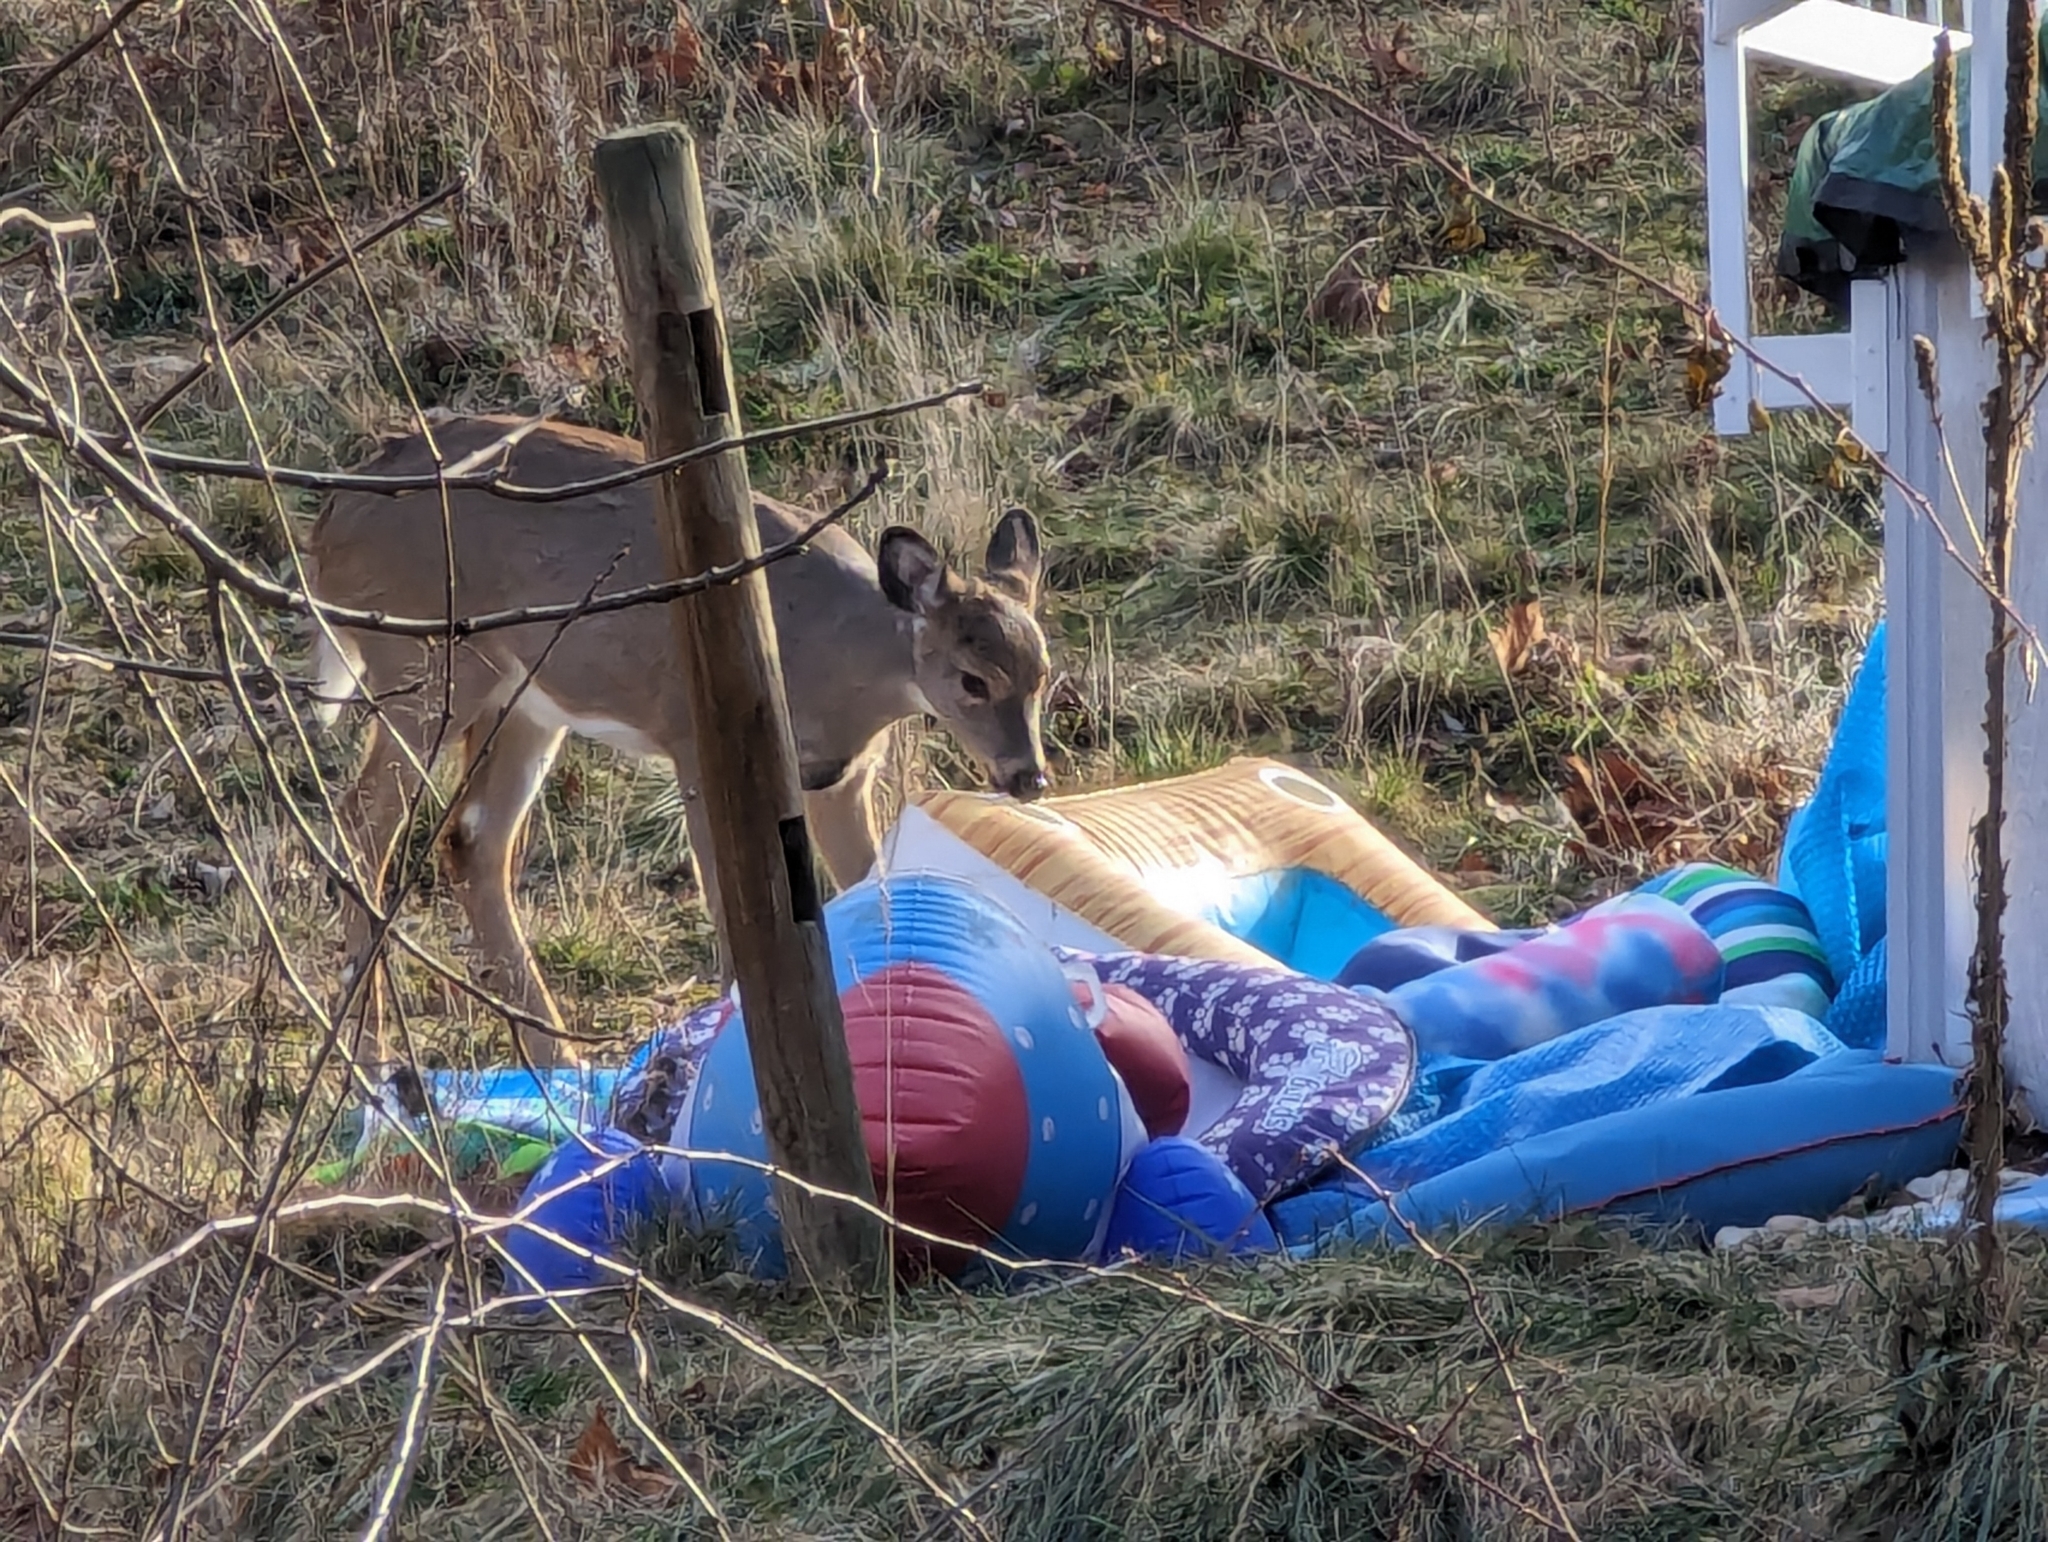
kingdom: Animalia
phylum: Chordata
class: Mammalia
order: Artiodactyla
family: Cervidae
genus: Odocoileus
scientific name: Odocoileus virginianus
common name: White-tailed deer
